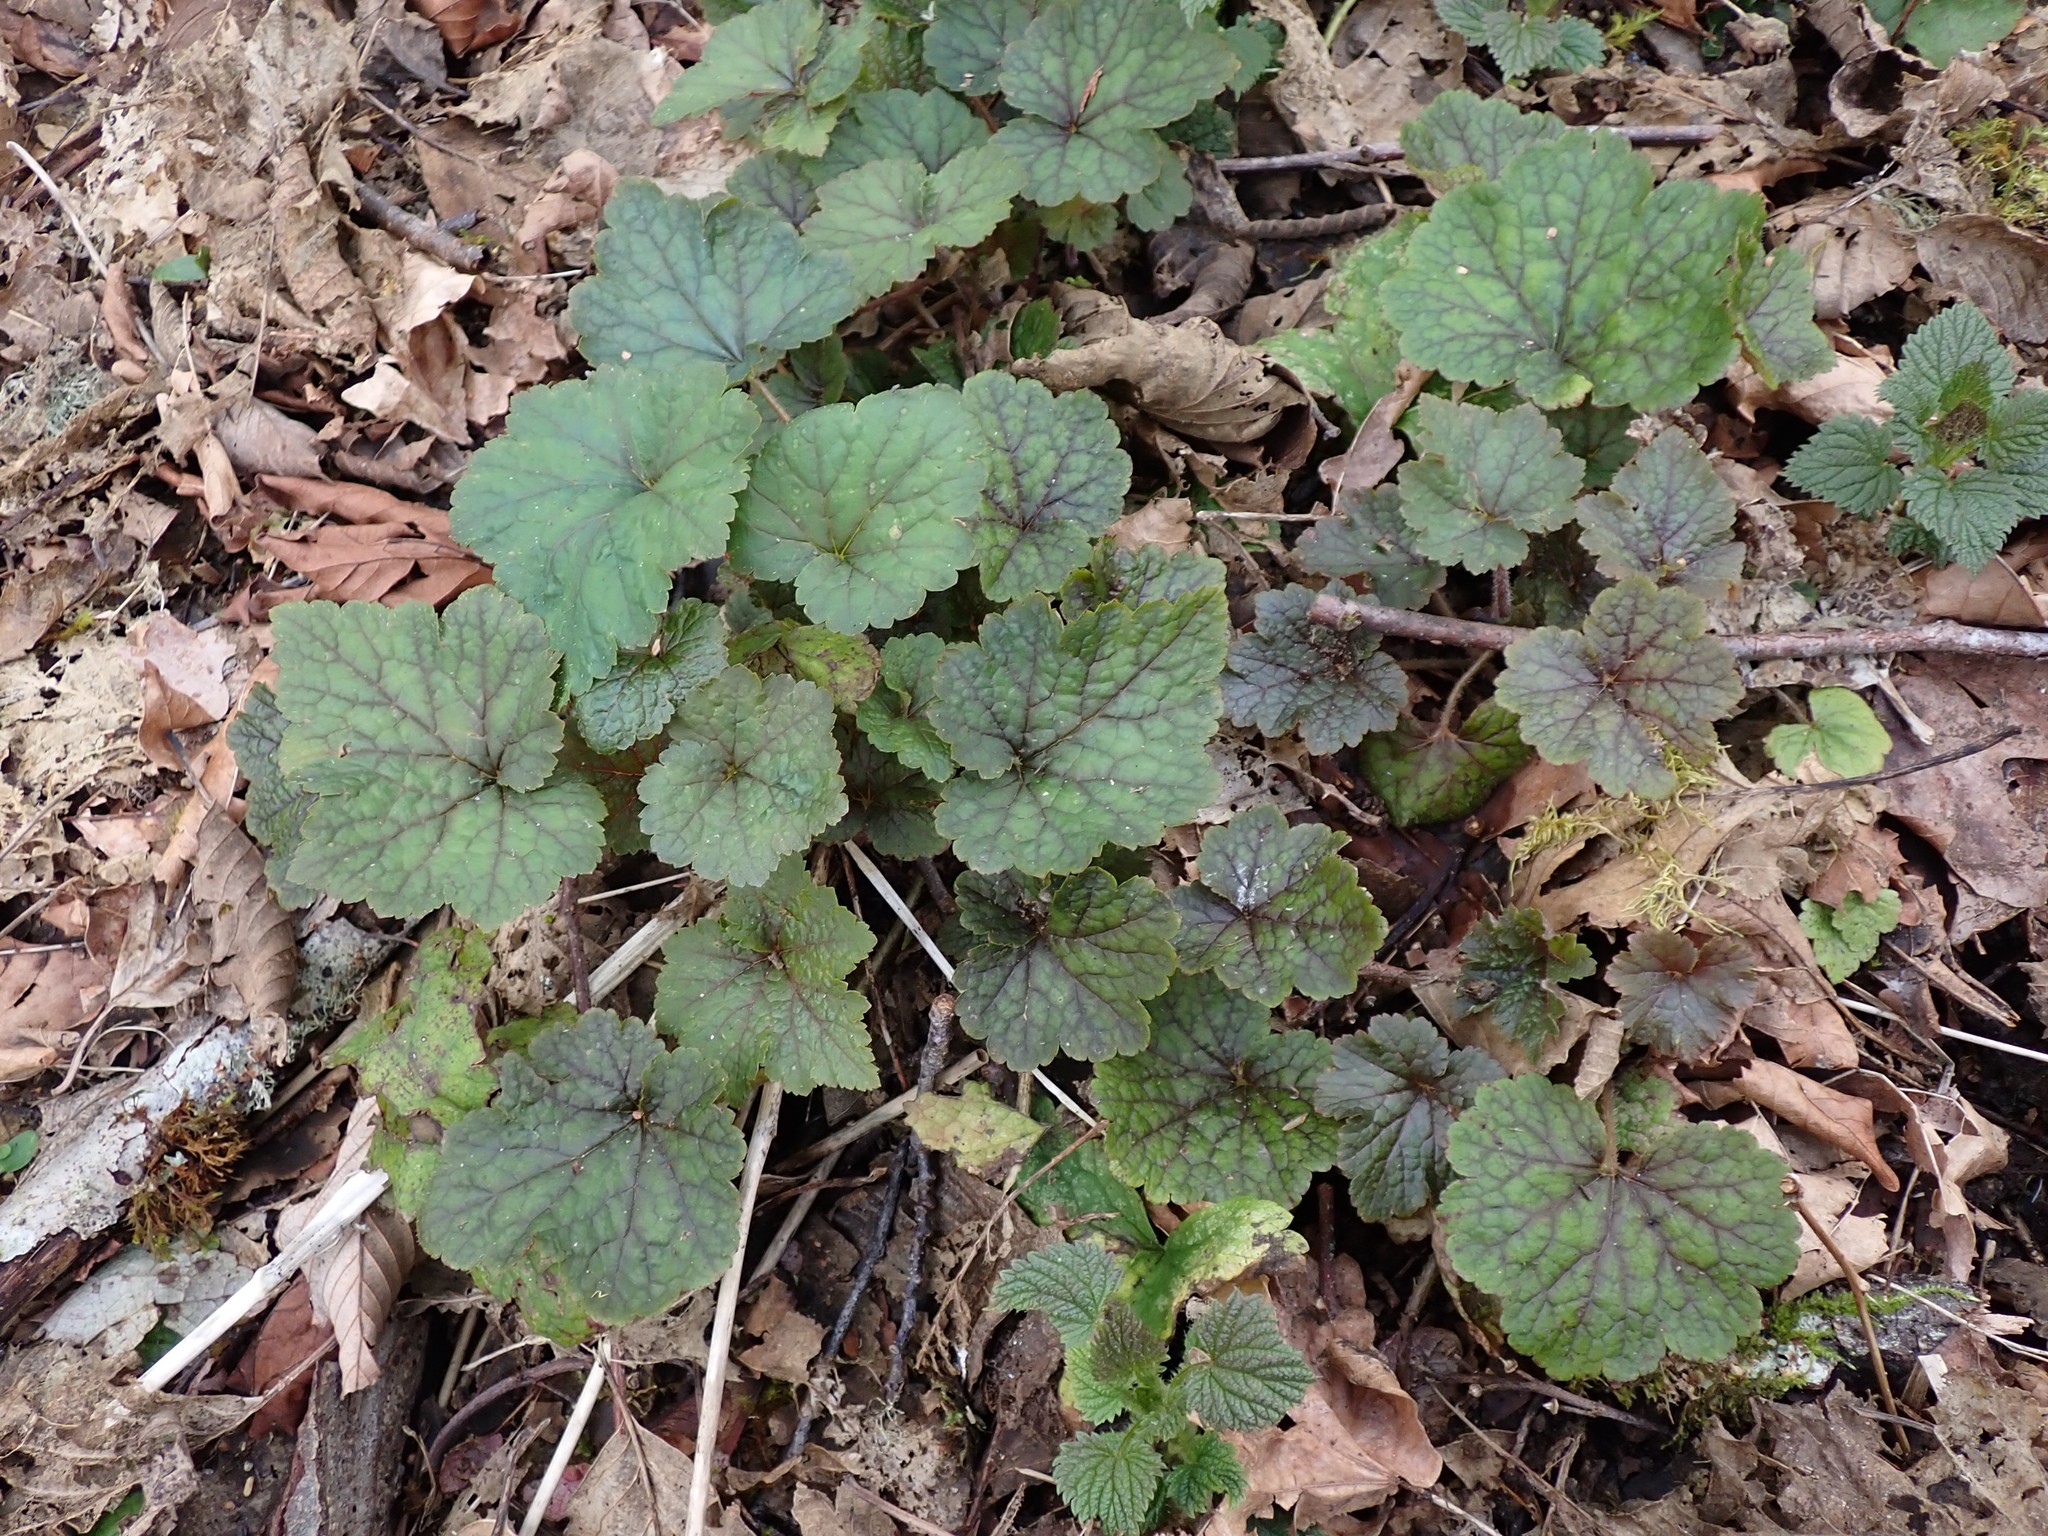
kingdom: Plantae
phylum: Tracheophyta
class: Magnoliopsida
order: Saxifragales
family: Saxifragaceae
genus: Tellima
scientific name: Tellima grandiflora
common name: Fringecups
